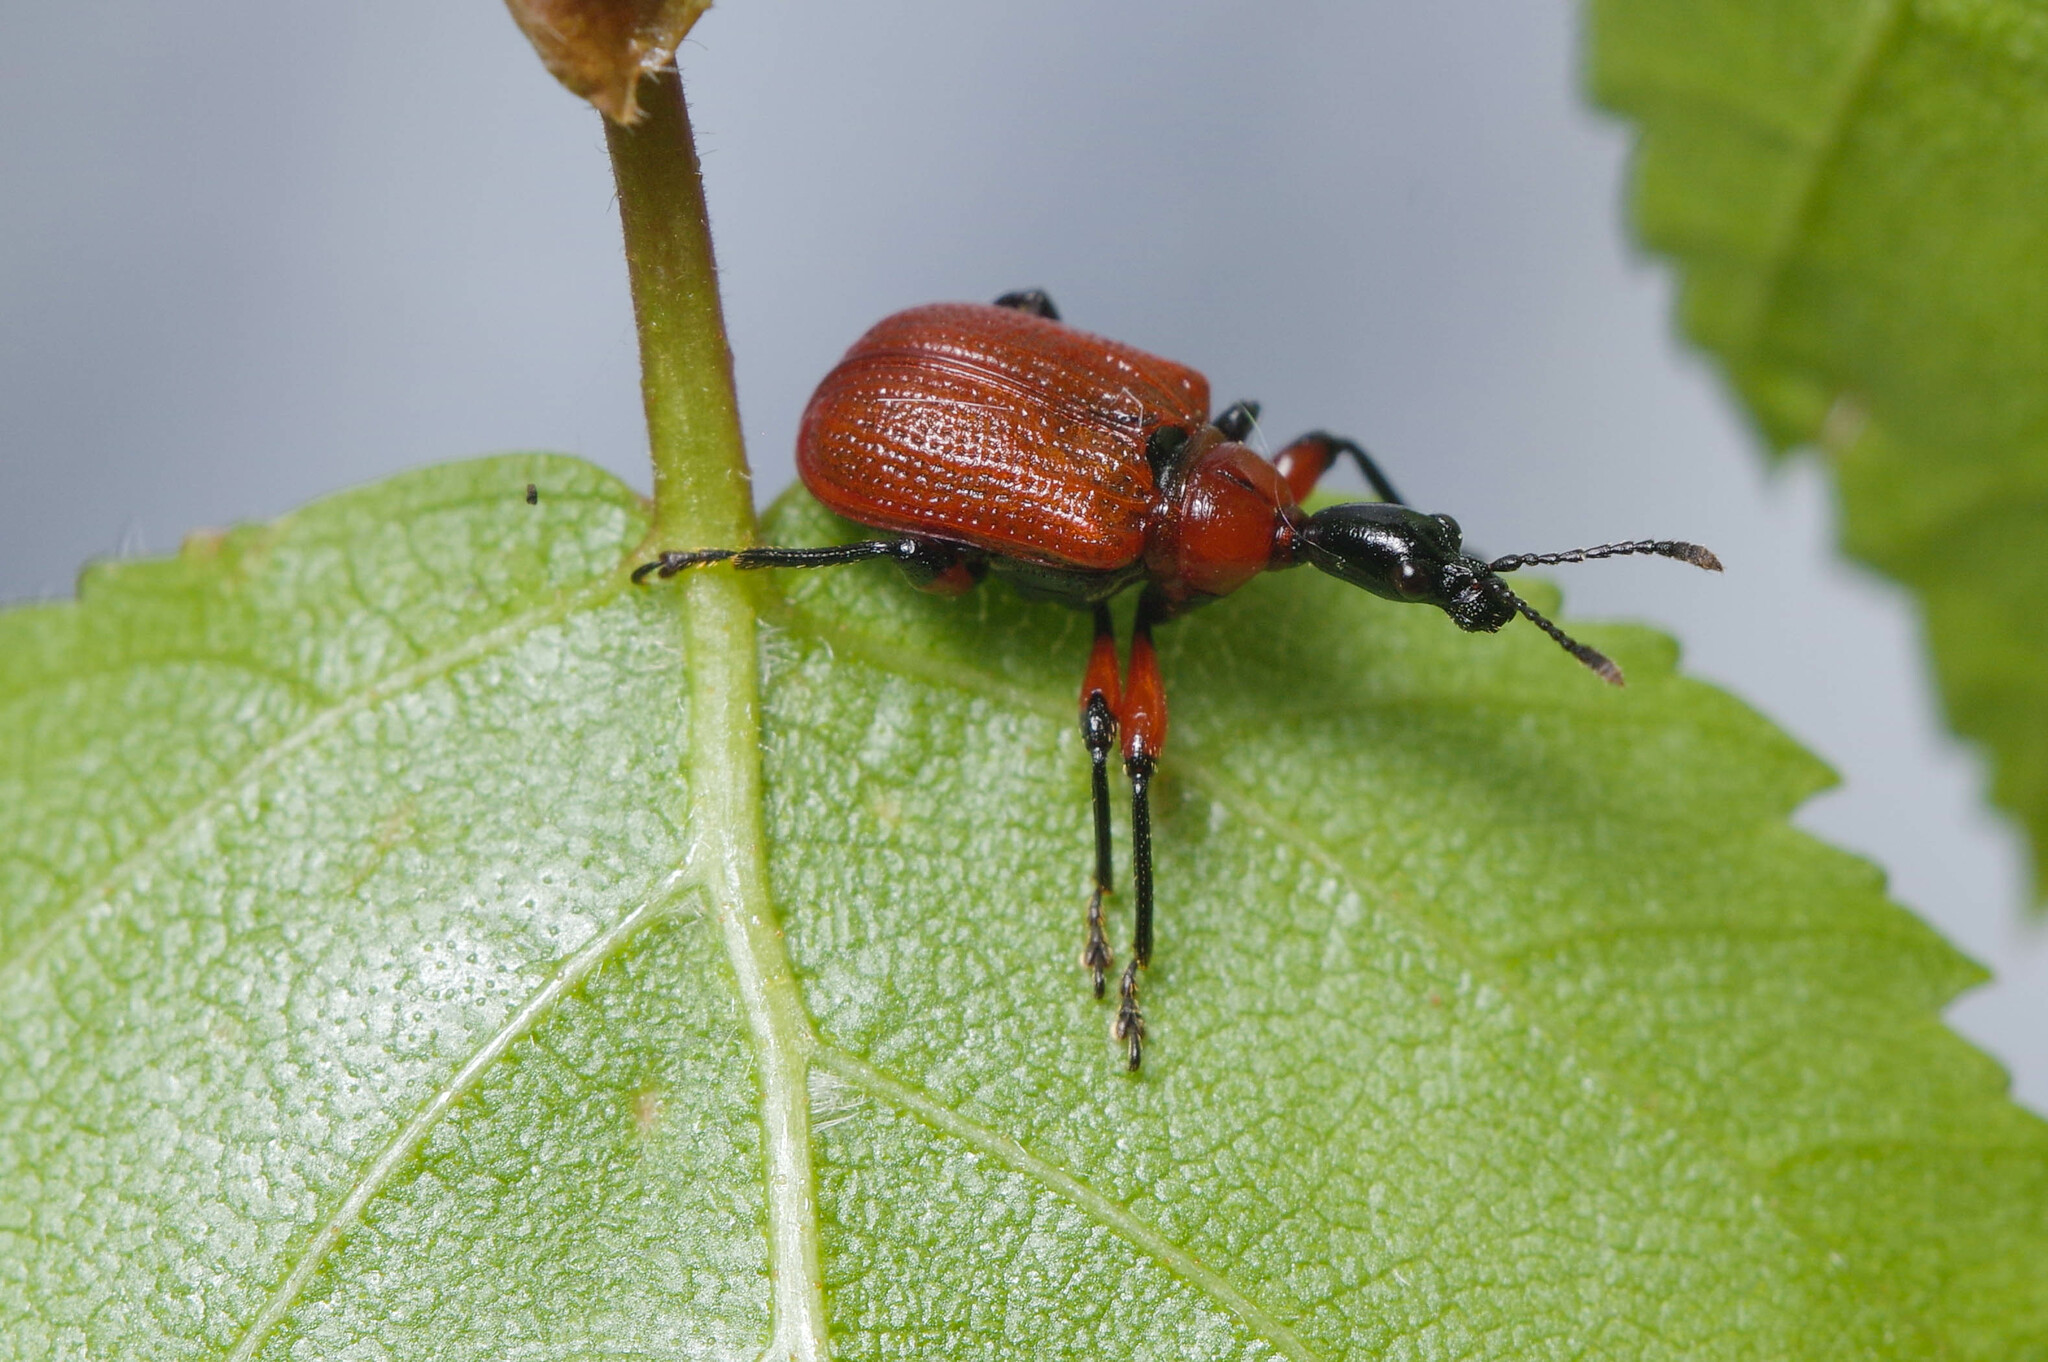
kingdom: Animalia
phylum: Arthropoda
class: Insecta
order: Coleoptera
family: Attelabidae
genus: Apoderus
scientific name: Apoderus coryli
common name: Hazel leaf roller
